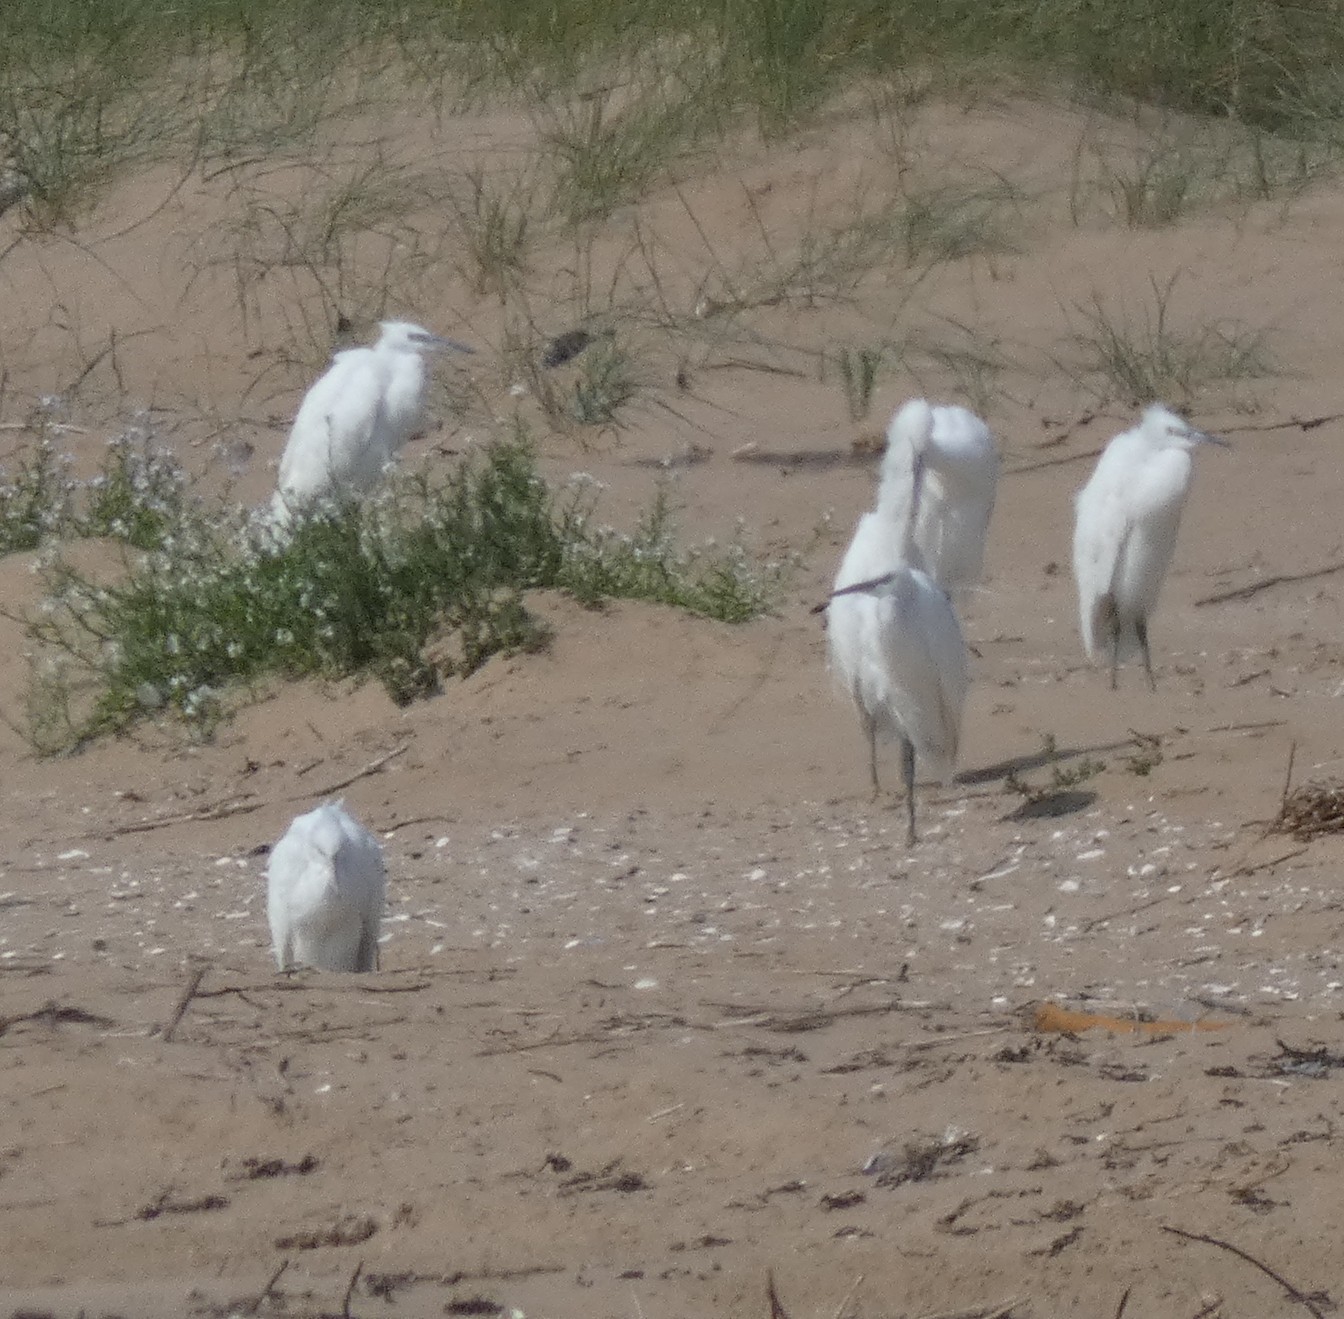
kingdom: Animalia
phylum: Chordata
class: Aves
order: Pelecaniformes
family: Ardeidae
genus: Egretta
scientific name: Egretta garzetta
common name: Little egret
